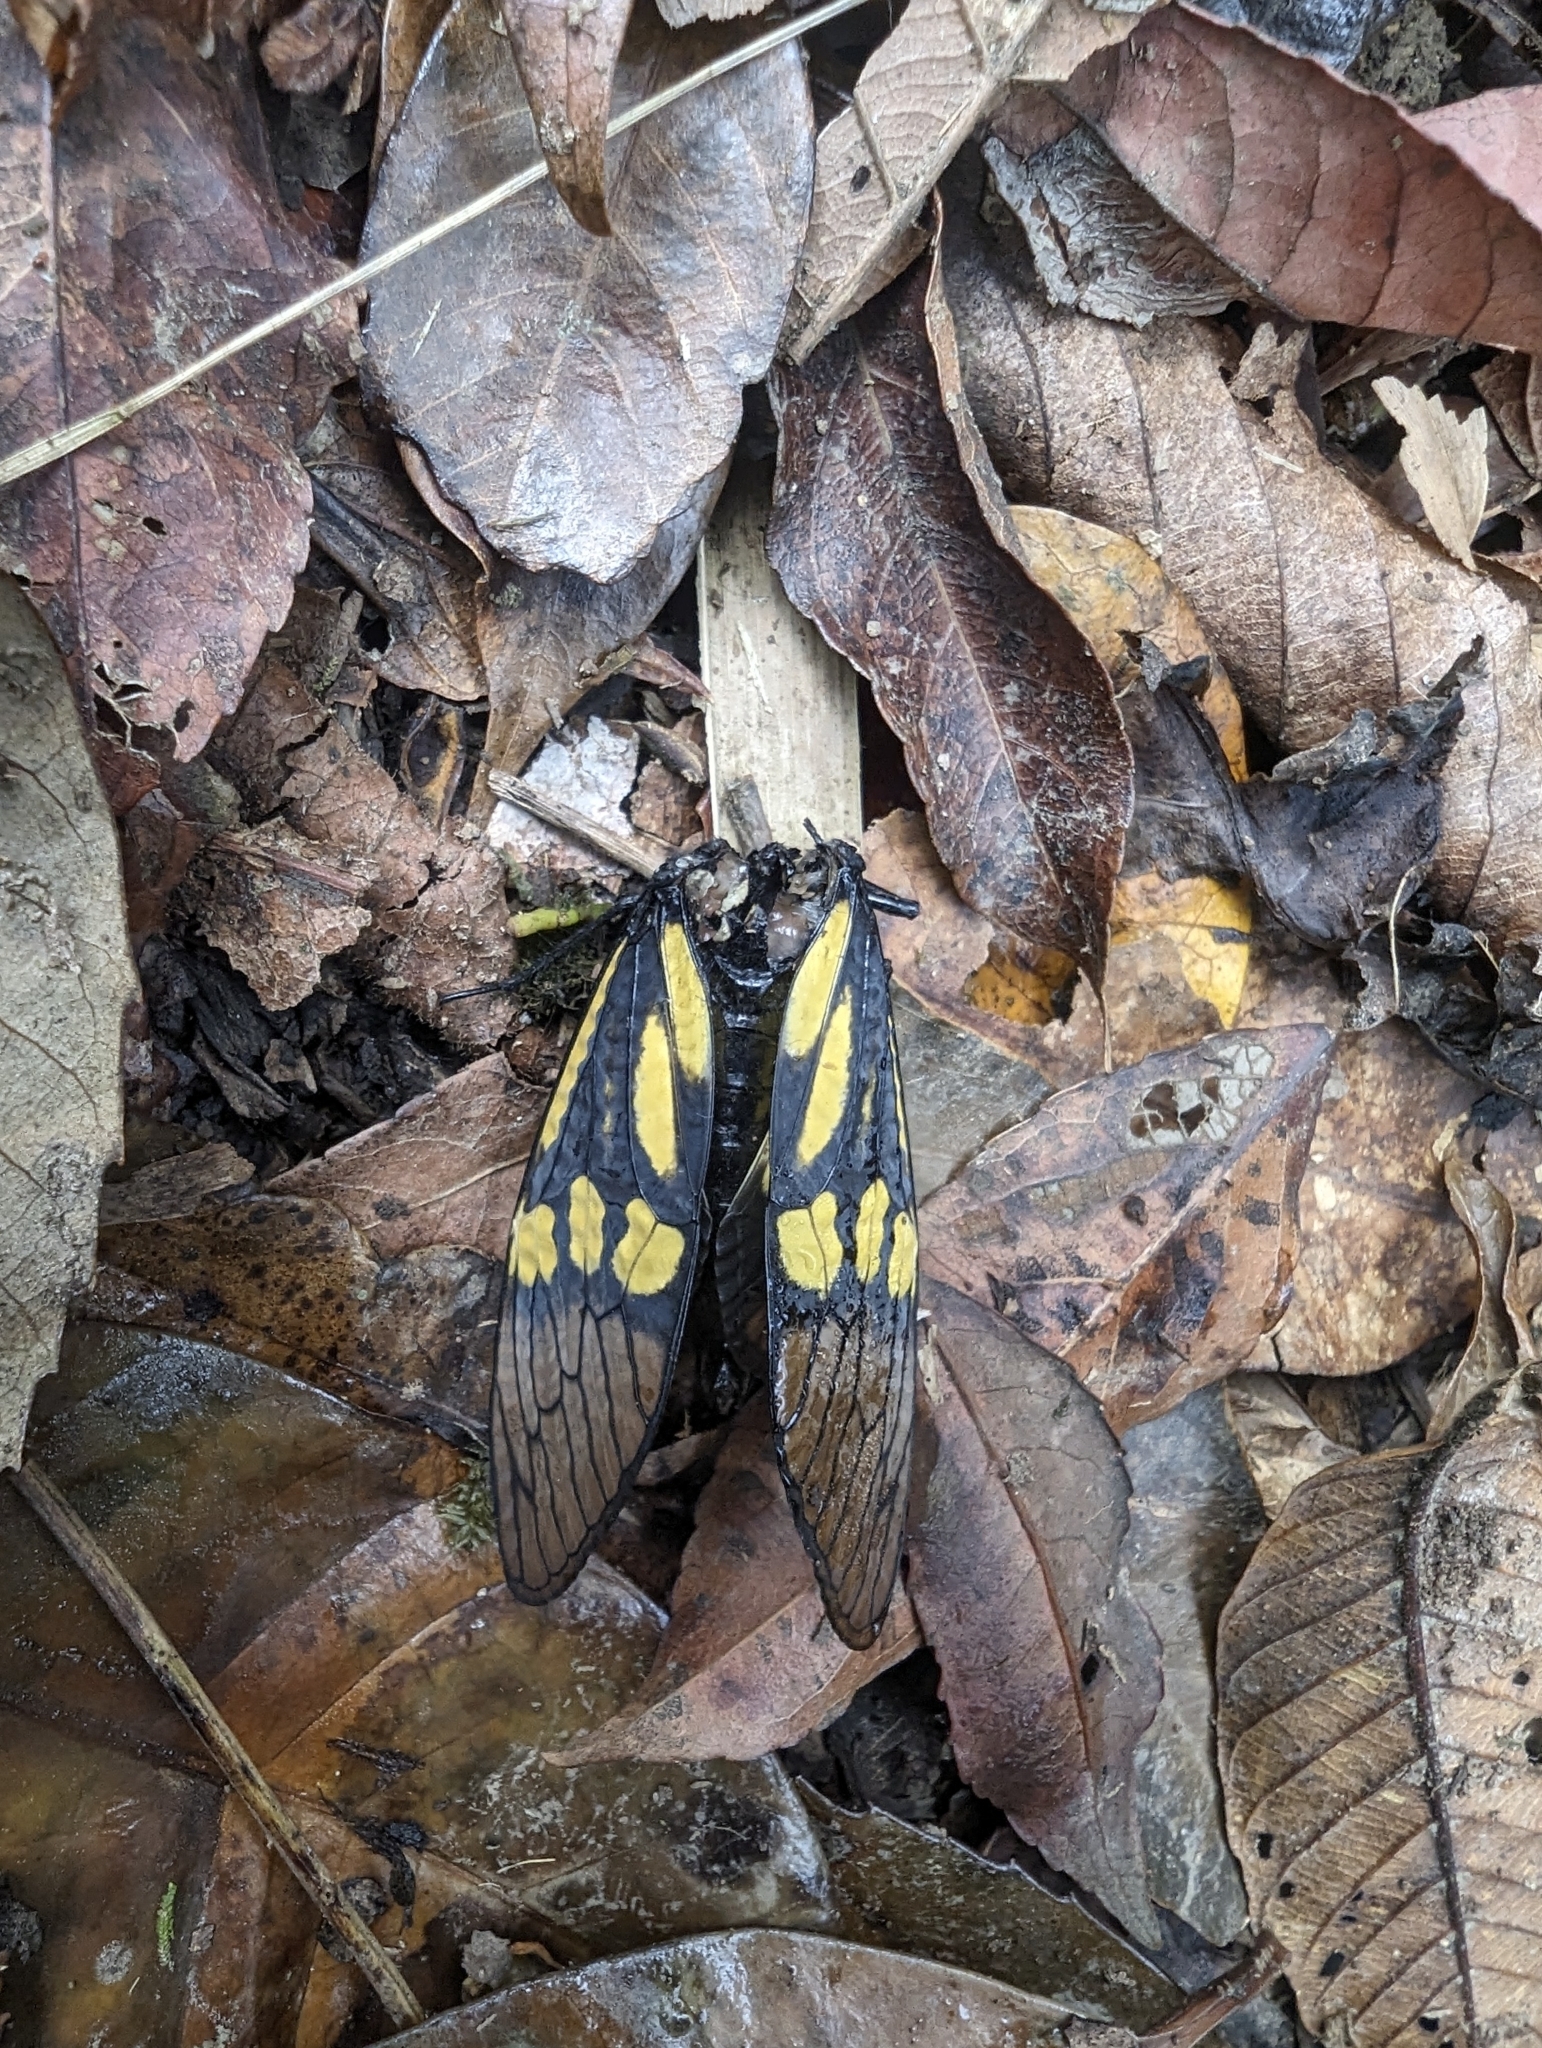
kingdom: Animalia
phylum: Arthropoda
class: Insecta
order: Hemiptera
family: Cicadidae
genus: Sulphogaeana
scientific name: Sulphogaeana vestita
